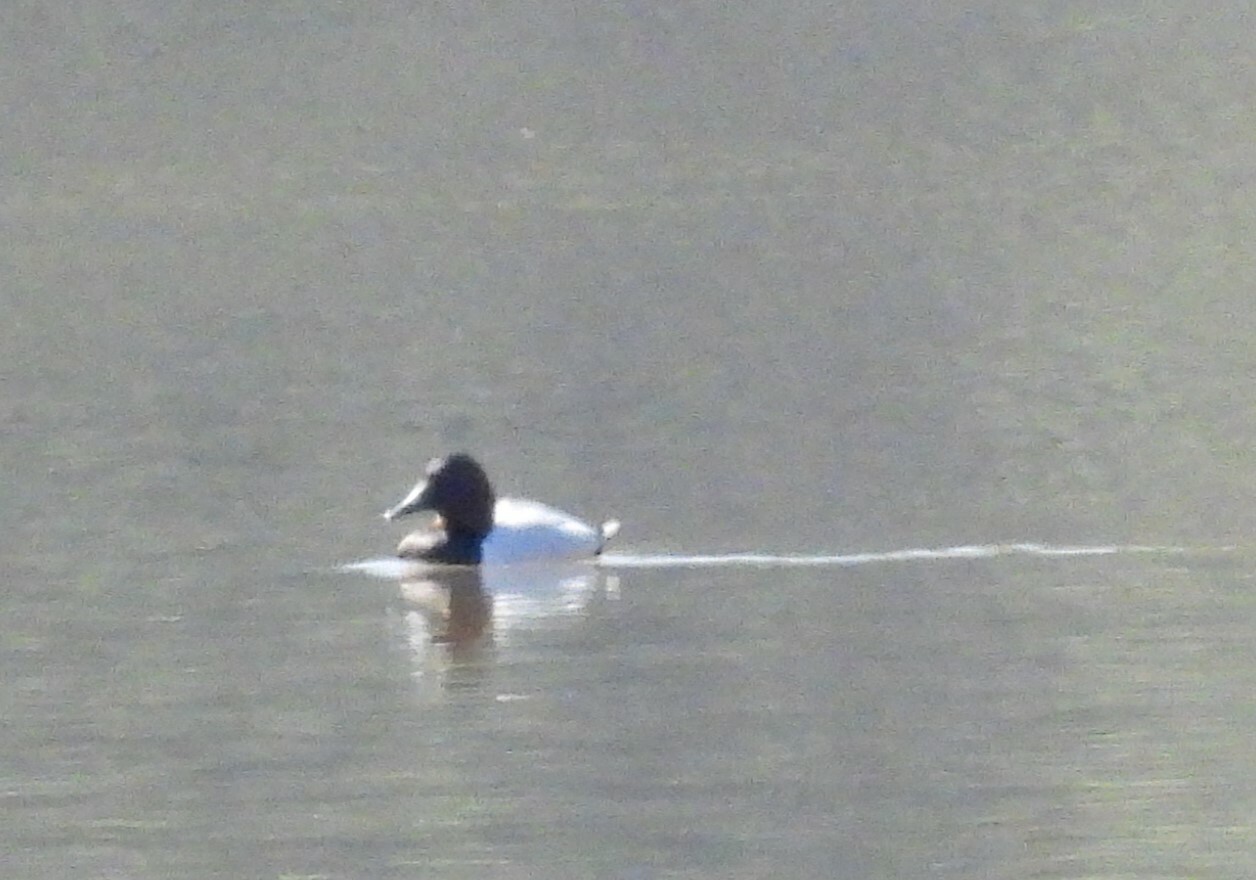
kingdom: Animalia
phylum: Chordata
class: Aves
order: Anseriformes
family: Anatidae
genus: Aythya
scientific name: Aythya valisineria
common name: Canvasback
